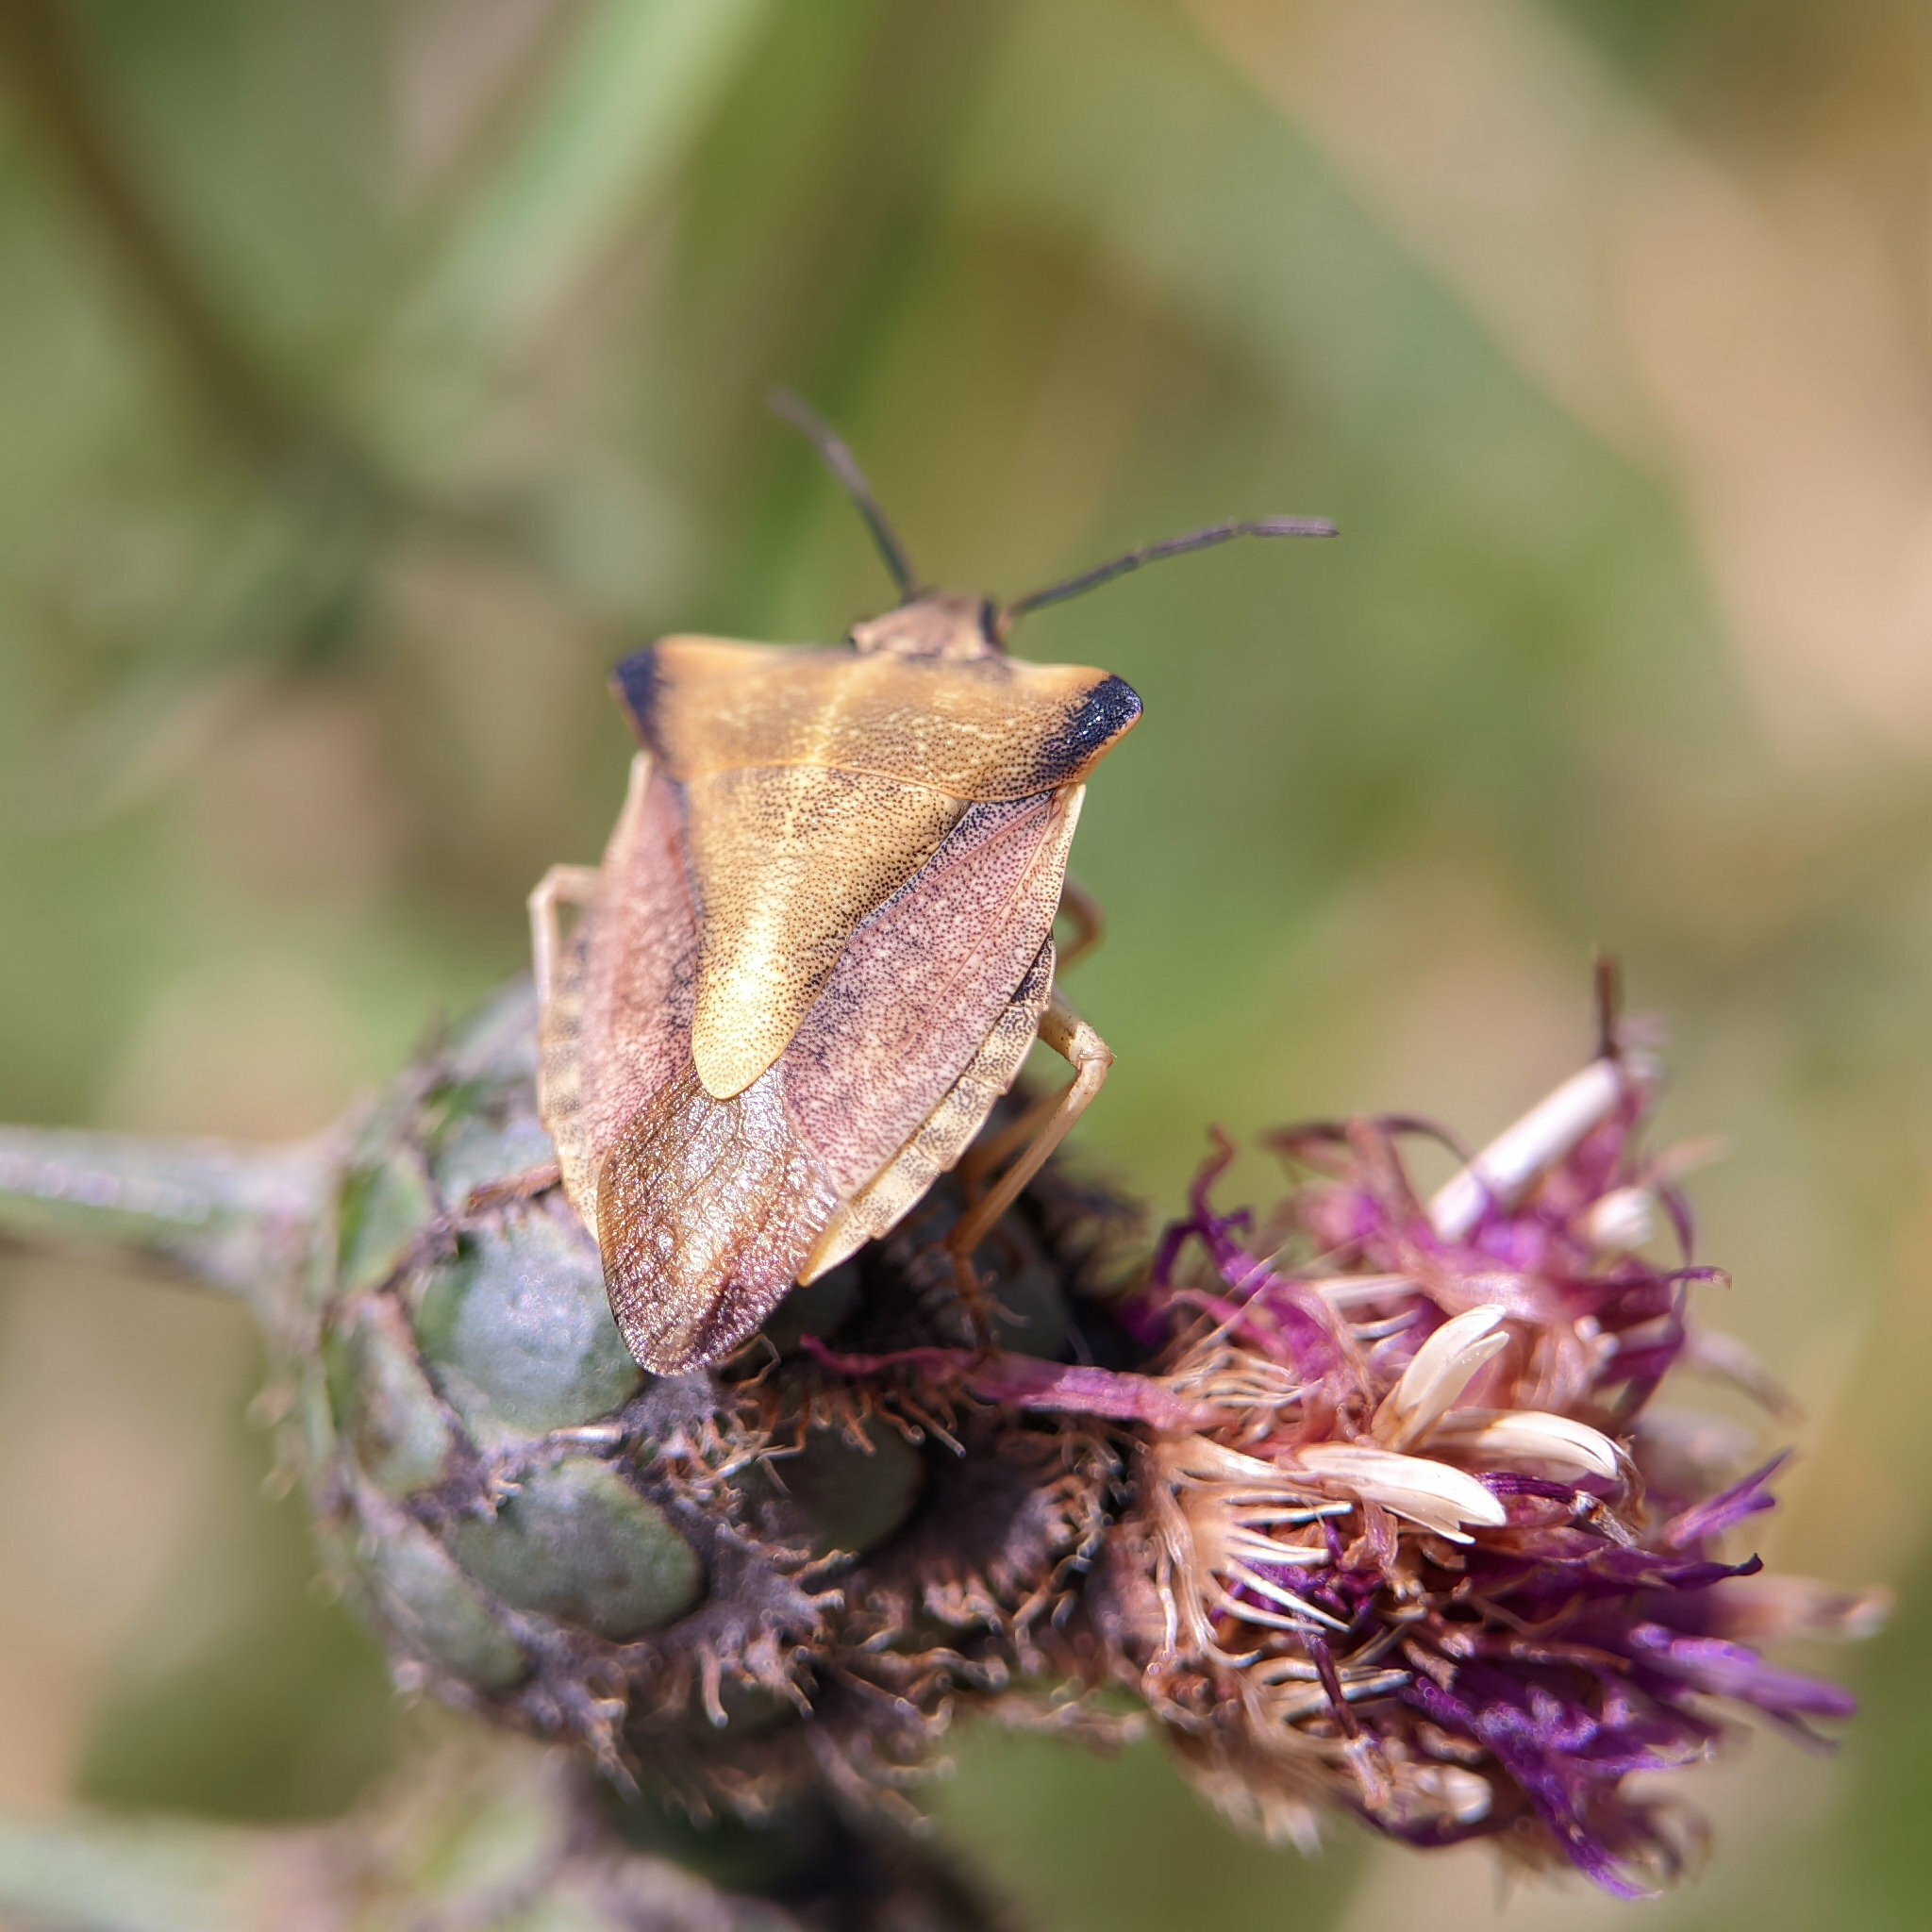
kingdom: Animalia
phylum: Arthropoda
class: Insecta
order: Hemiptera
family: Pentatomidae
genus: Carpocoris
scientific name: Carpocoris fuscispinus
